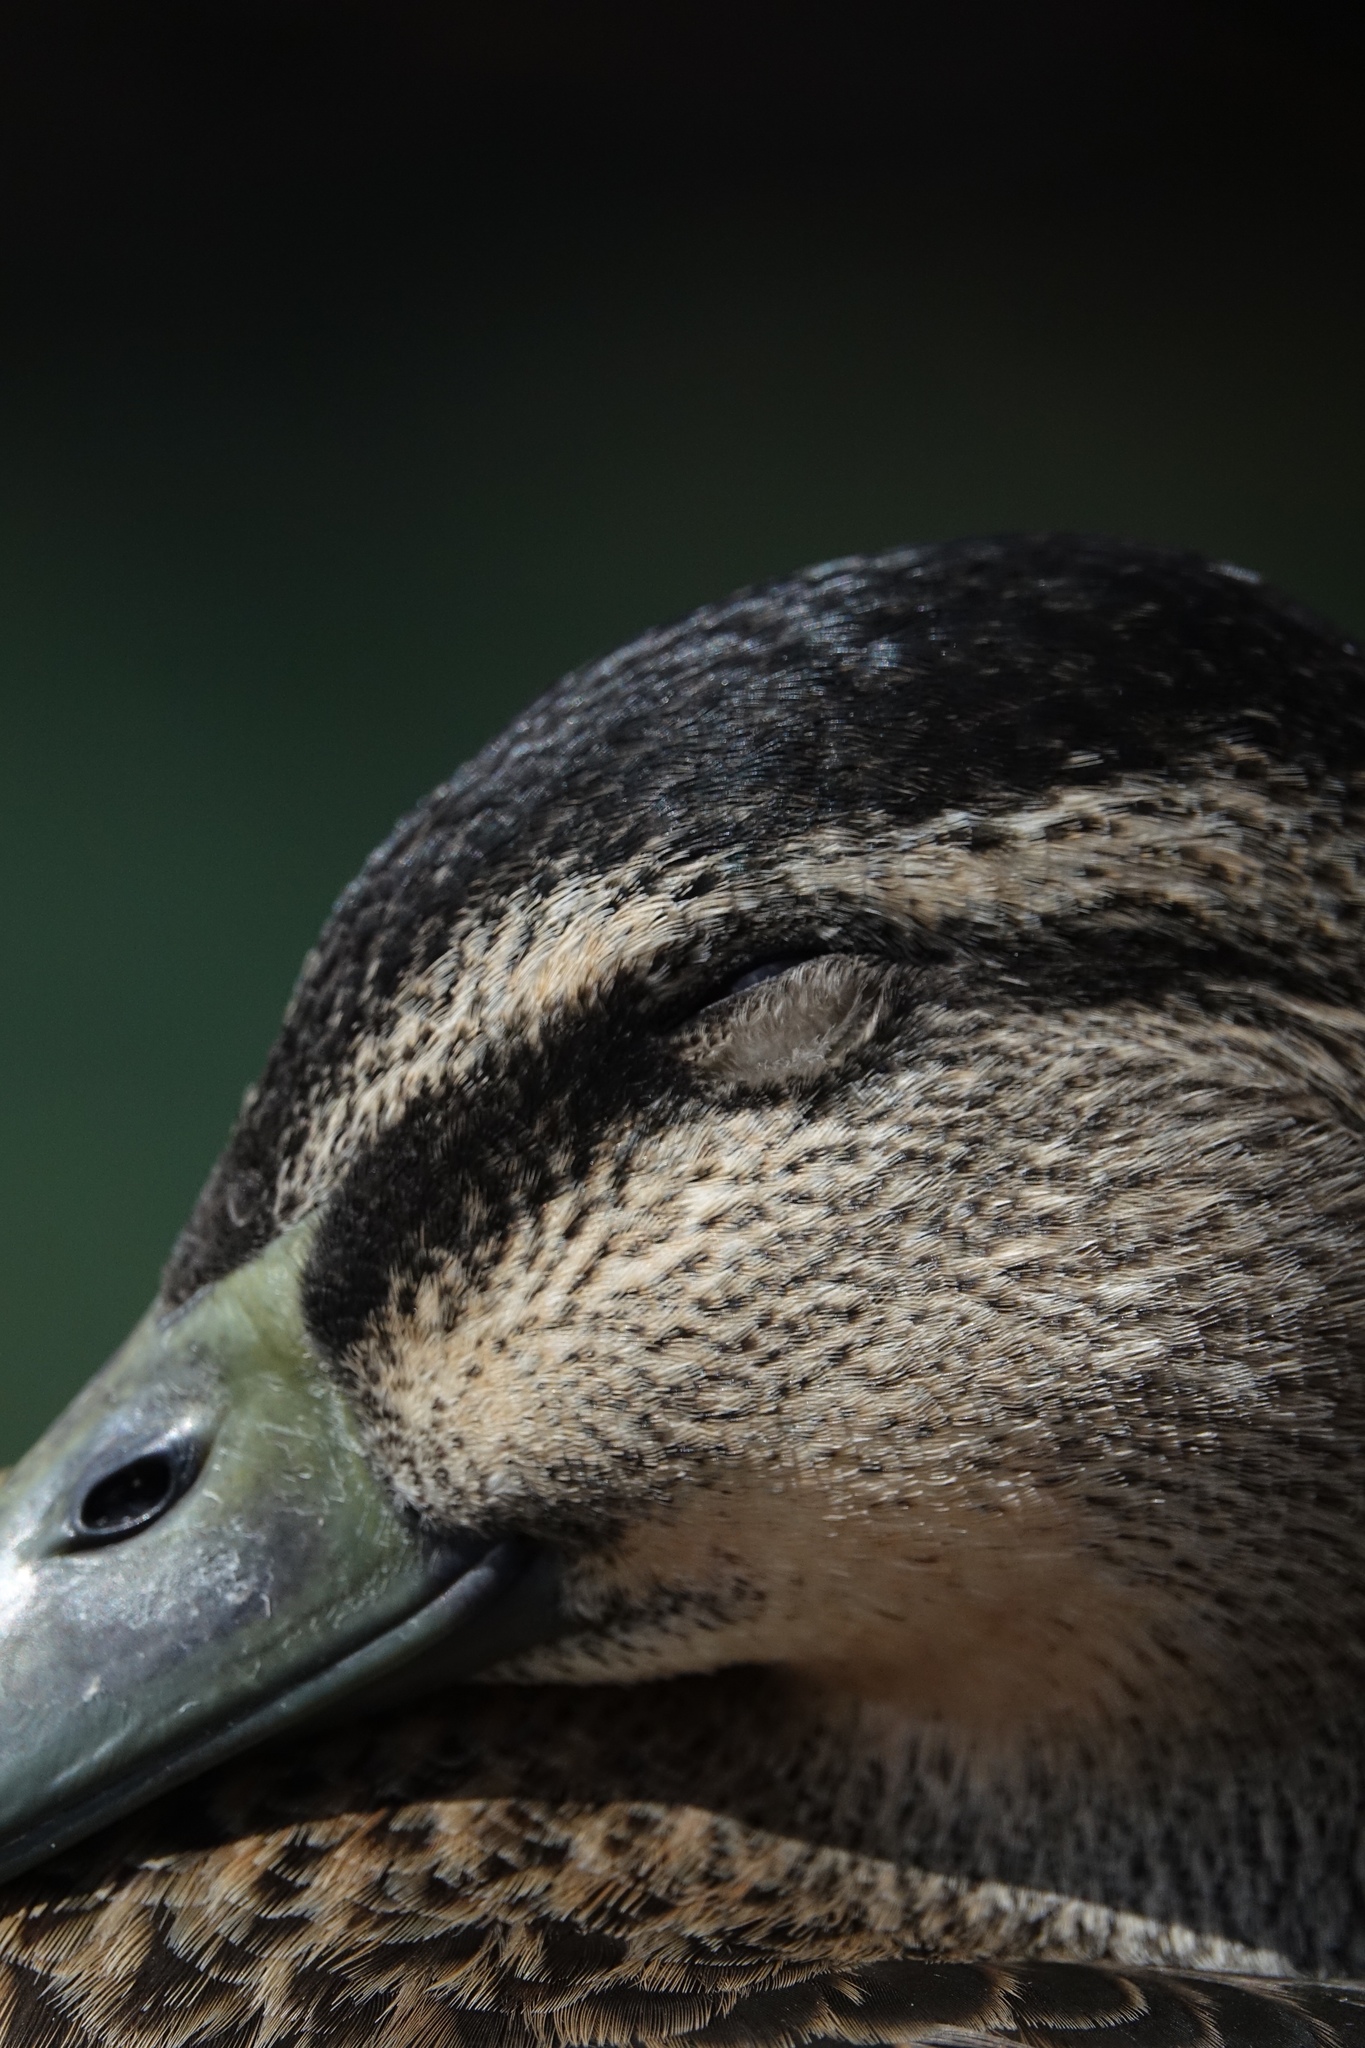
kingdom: Animalia
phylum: Chordata
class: Aves
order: Anseriformes
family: Anatidae
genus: Anas
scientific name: Anas
